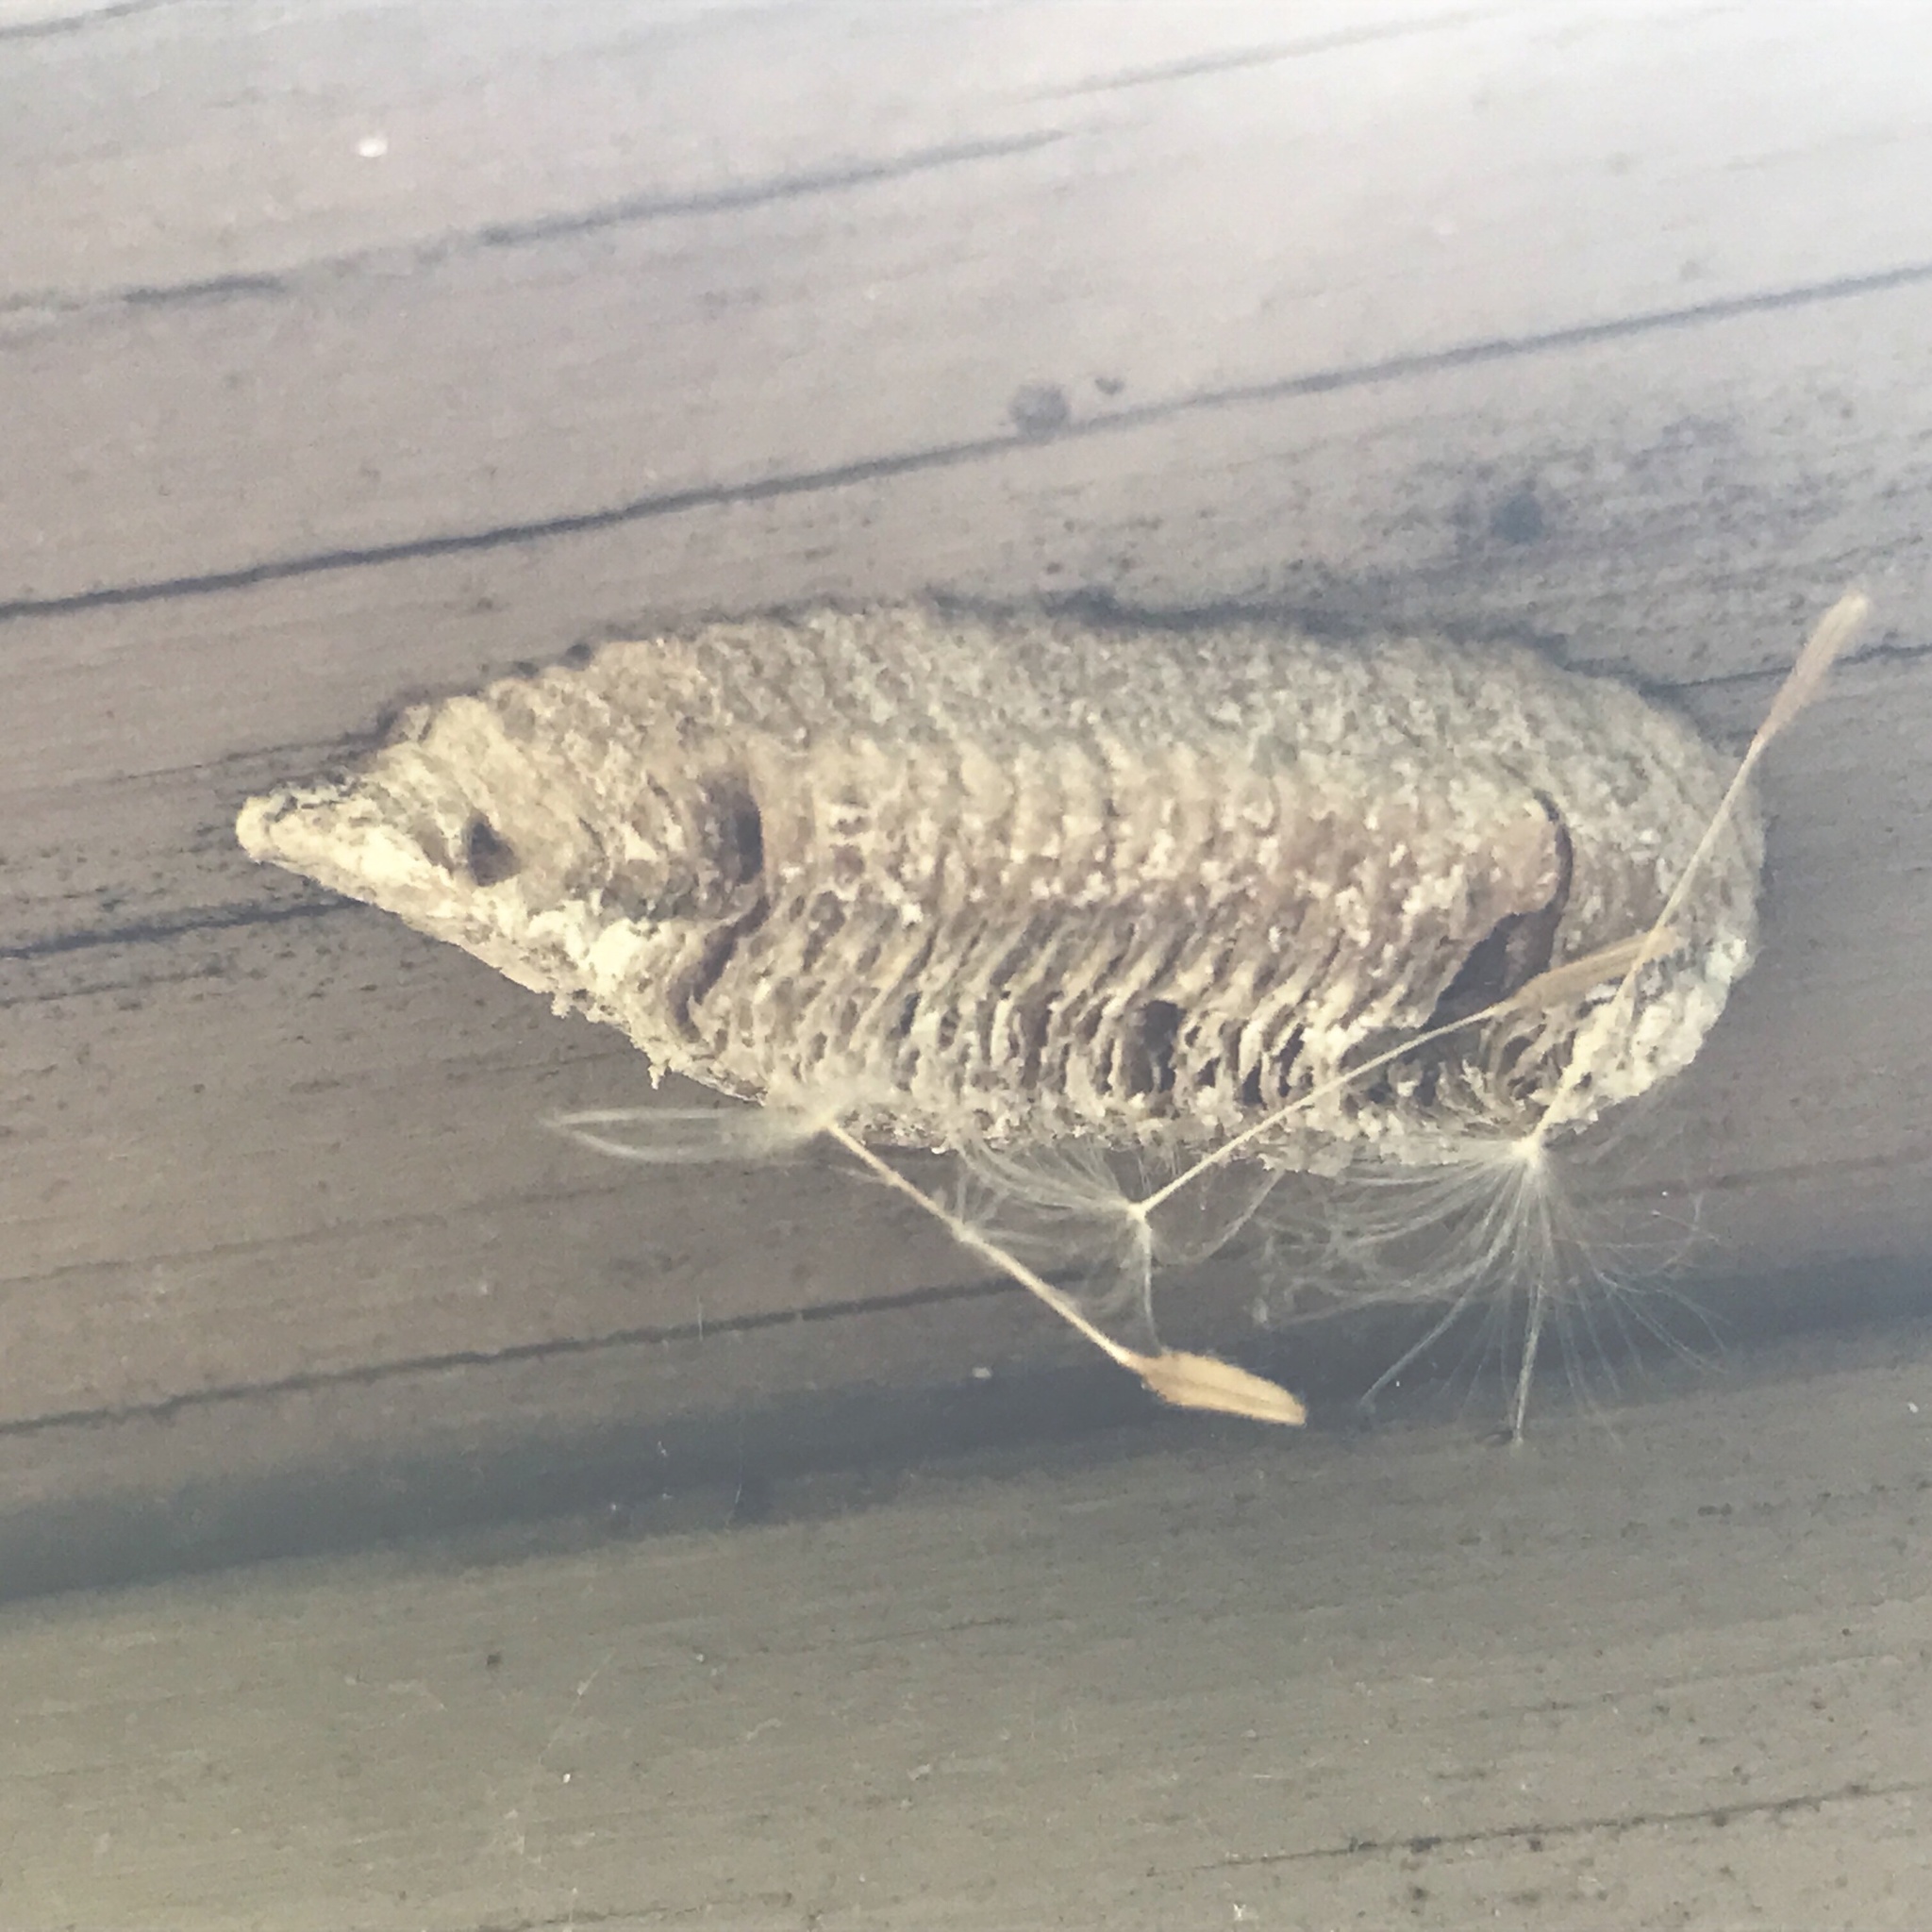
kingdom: Animalia
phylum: Arthropoda
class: Insecta
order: Mantodea
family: Mantidae
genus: Stagmomantis
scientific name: Stagmomantis carolina
